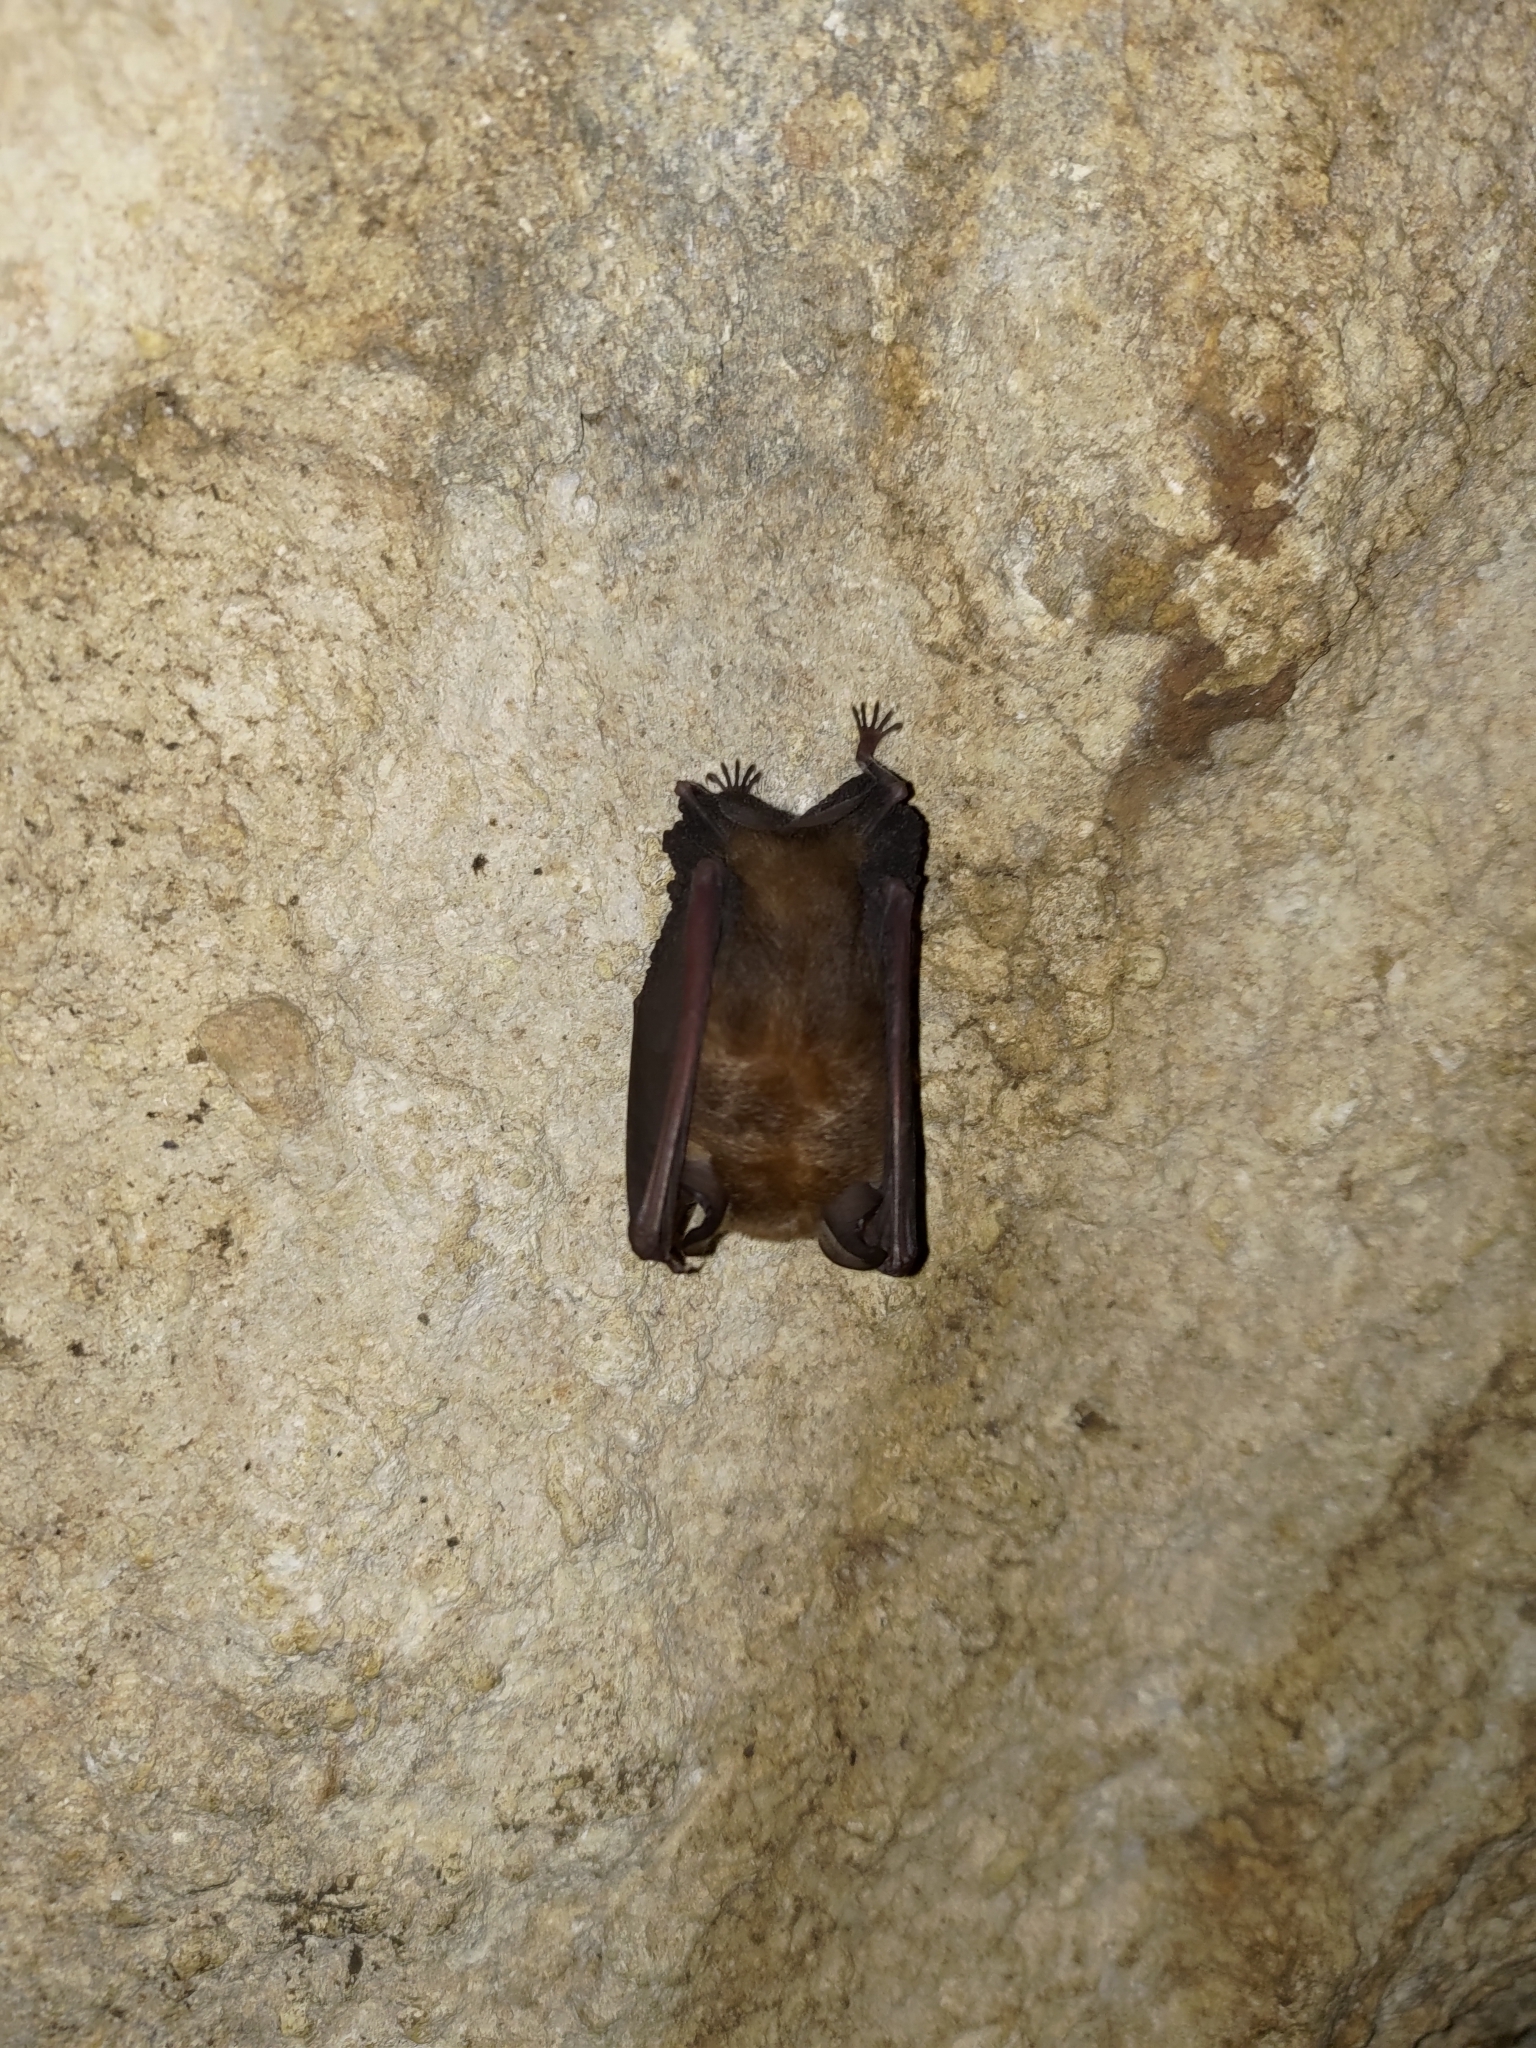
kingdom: Animalia
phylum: Chordata
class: Mammalia
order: Chiroptera
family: Rhinolophidae
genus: Rhinolophus
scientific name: Rhinolophus monoceros
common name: Formosan lesser horseshoe bat
